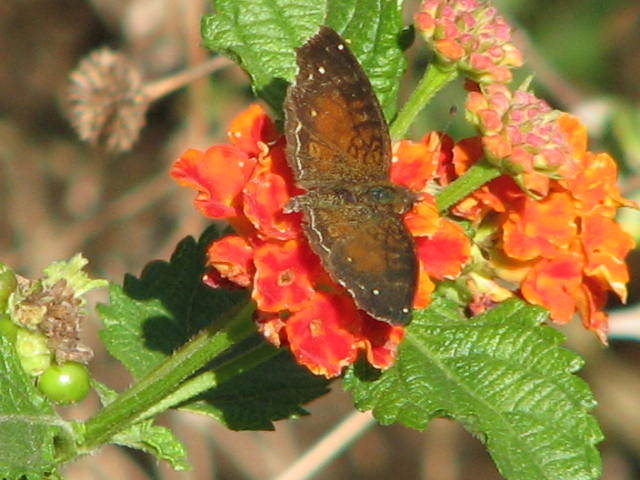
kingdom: Animalia
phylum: Arthropoda
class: Insecta
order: Lepidoptera
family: Nymphalidae
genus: Anthanassa
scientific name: Anthanassa argentea
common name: Chestnut crescent
